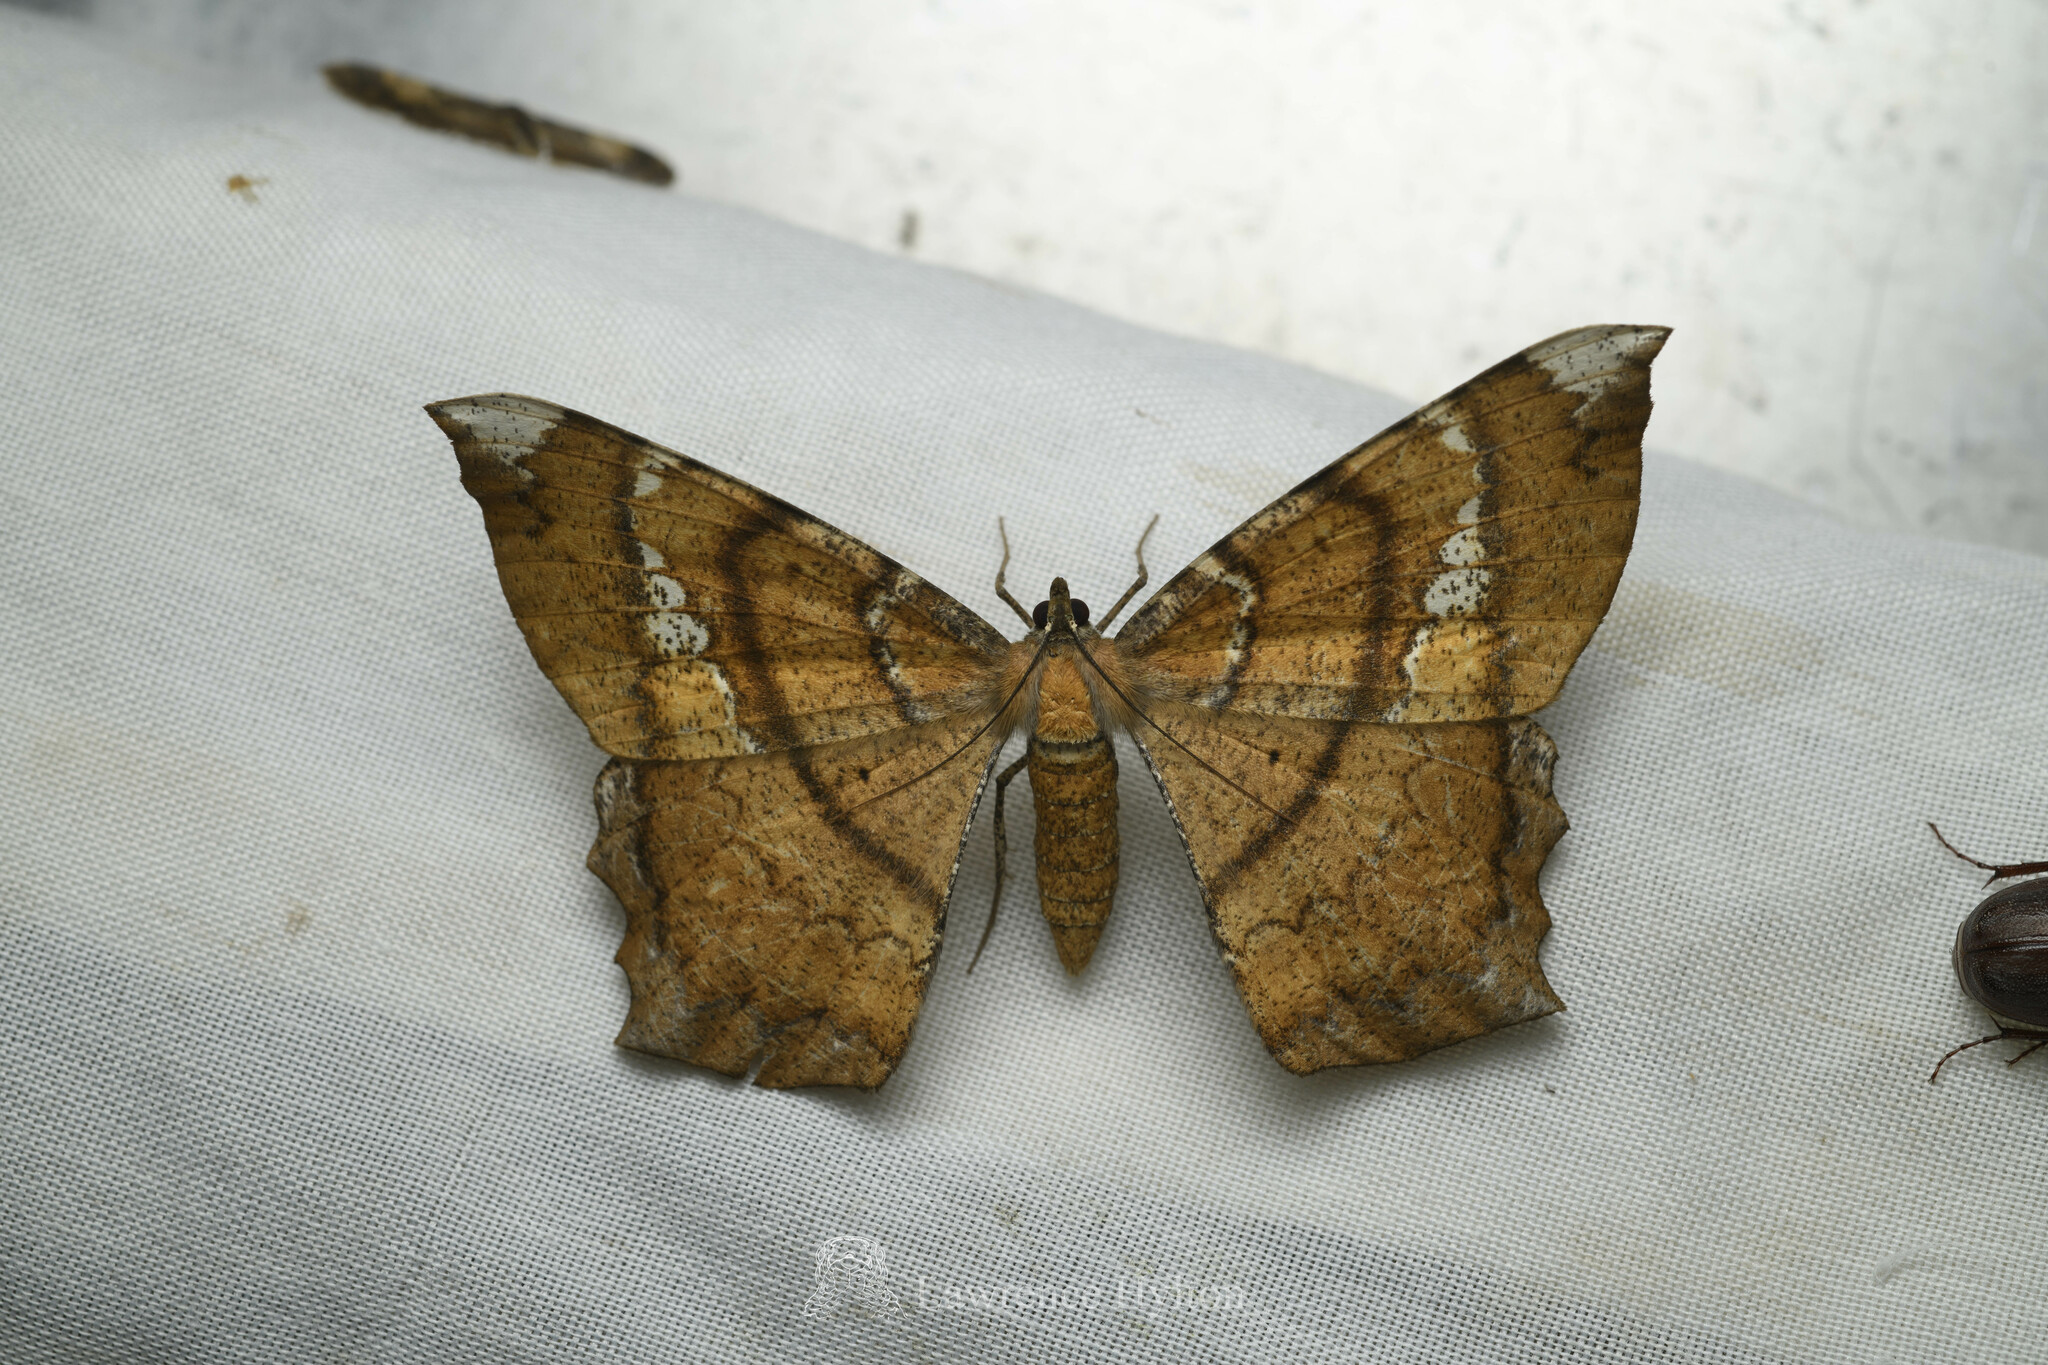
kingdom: Animalia
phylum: Arthropoda
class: Insecta
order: Lepidoptera
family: Geometridae
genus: Amblychia
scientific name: Amblychia angeronaria
